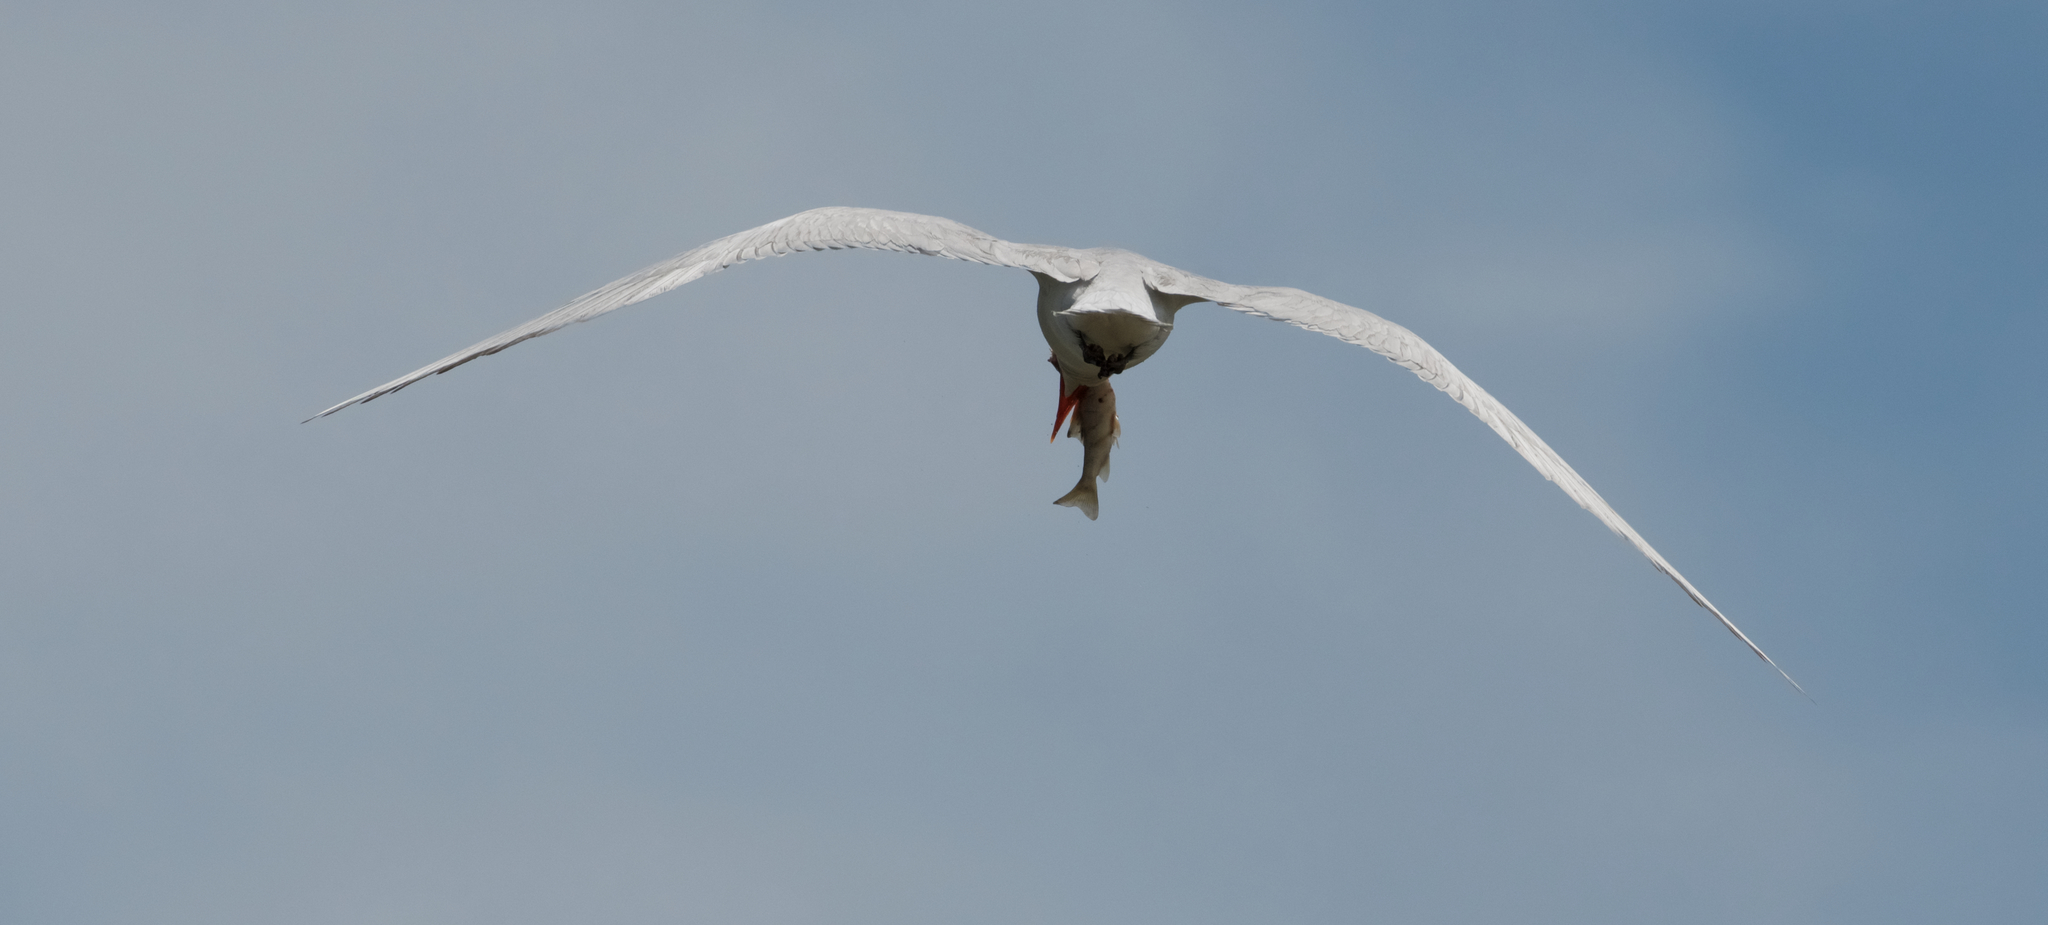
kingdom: Animalia
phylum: Chordata
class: Aves
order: Charadriiformes
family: Laridae
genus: Hydroprogne
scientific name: Hydroprogne caspia
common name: Caspian tern
